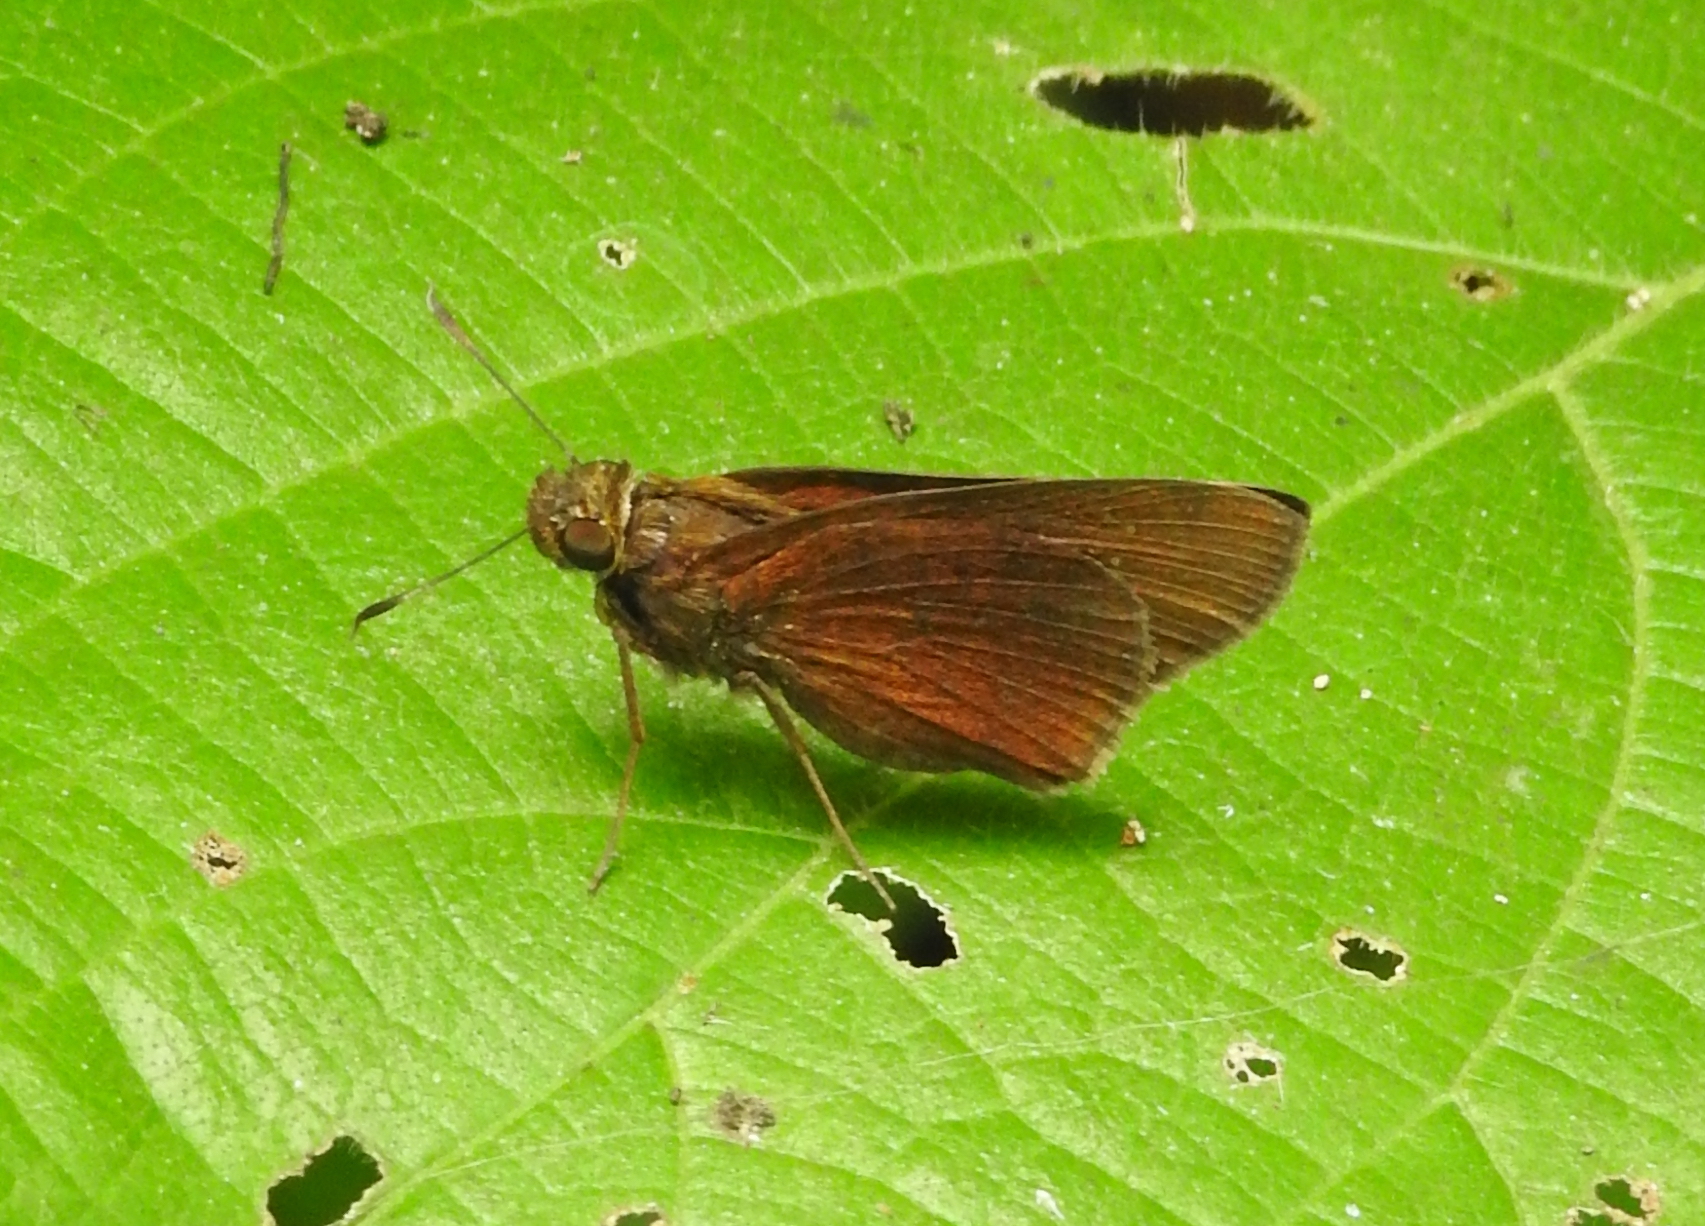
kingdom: Animalia
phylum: Arthropoda
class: Insecta
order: Lepidoptera
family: Hesperiidae
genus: Caltoris
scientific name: Caltoris cormasa
